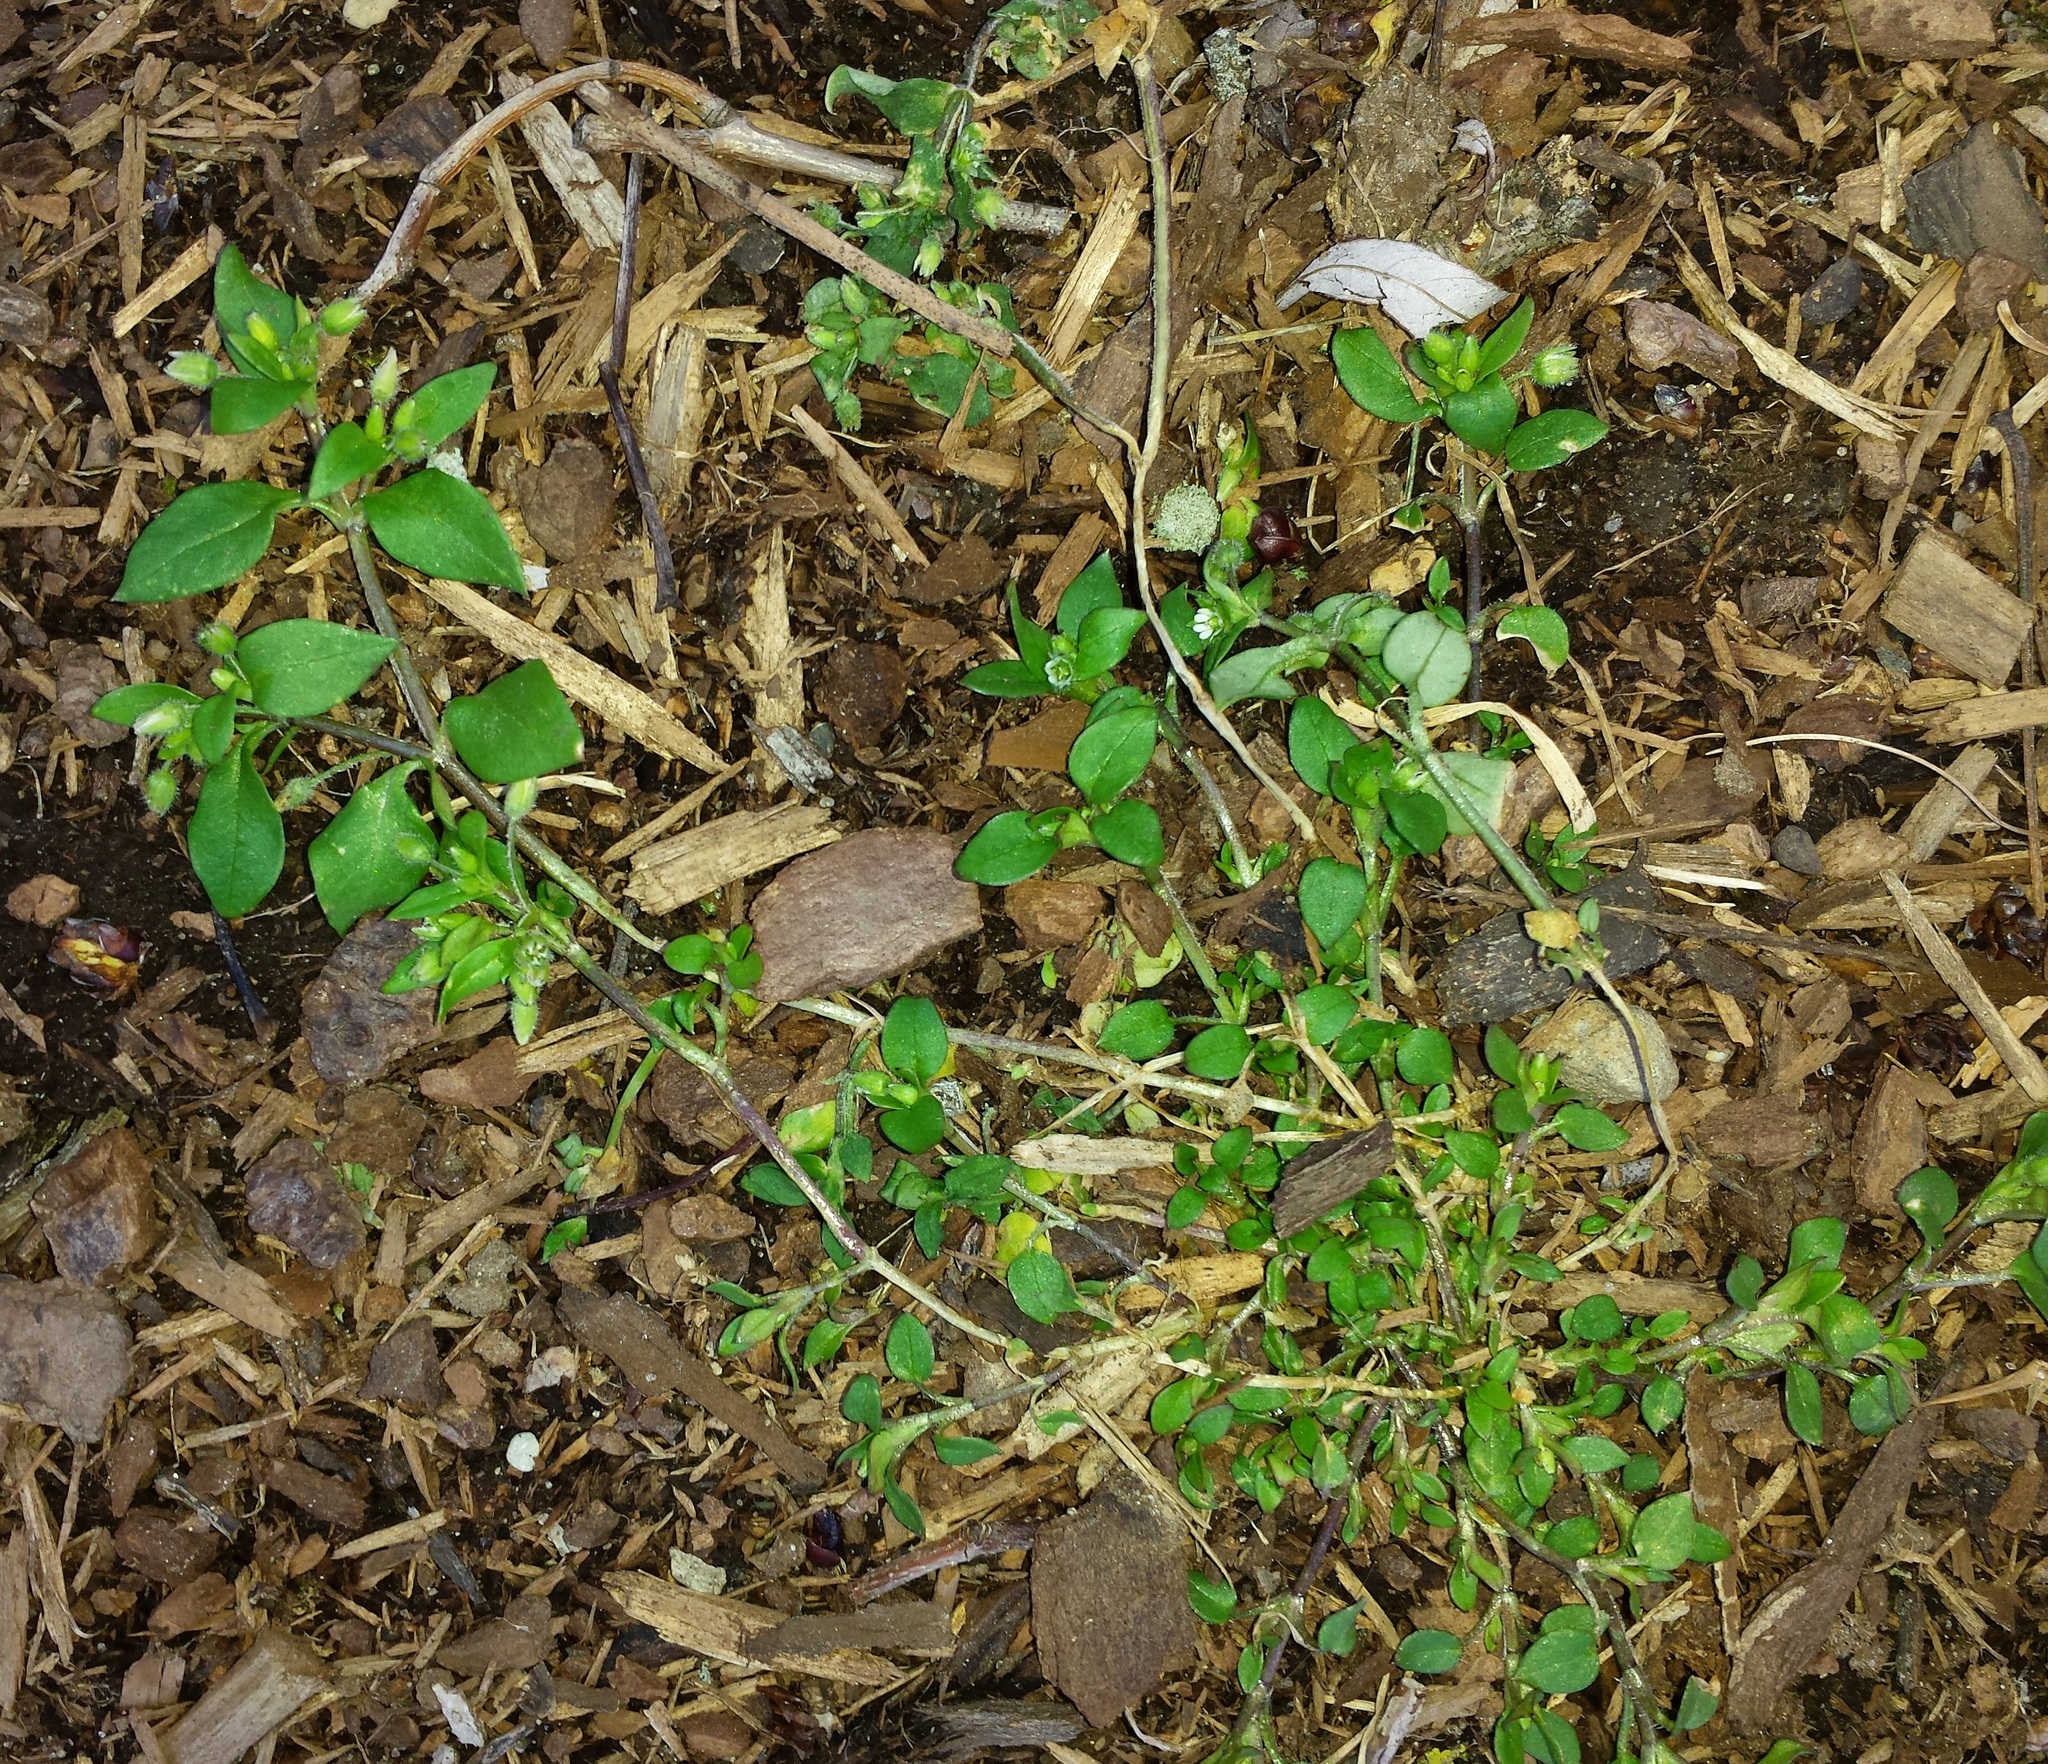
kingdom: Plantae
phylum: Tracheophyta
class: Magnoliopsida
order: Caryophyllales
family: Caryophyllaceae
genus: Stellaria
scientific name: Stellaria media
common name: Common chickweed
